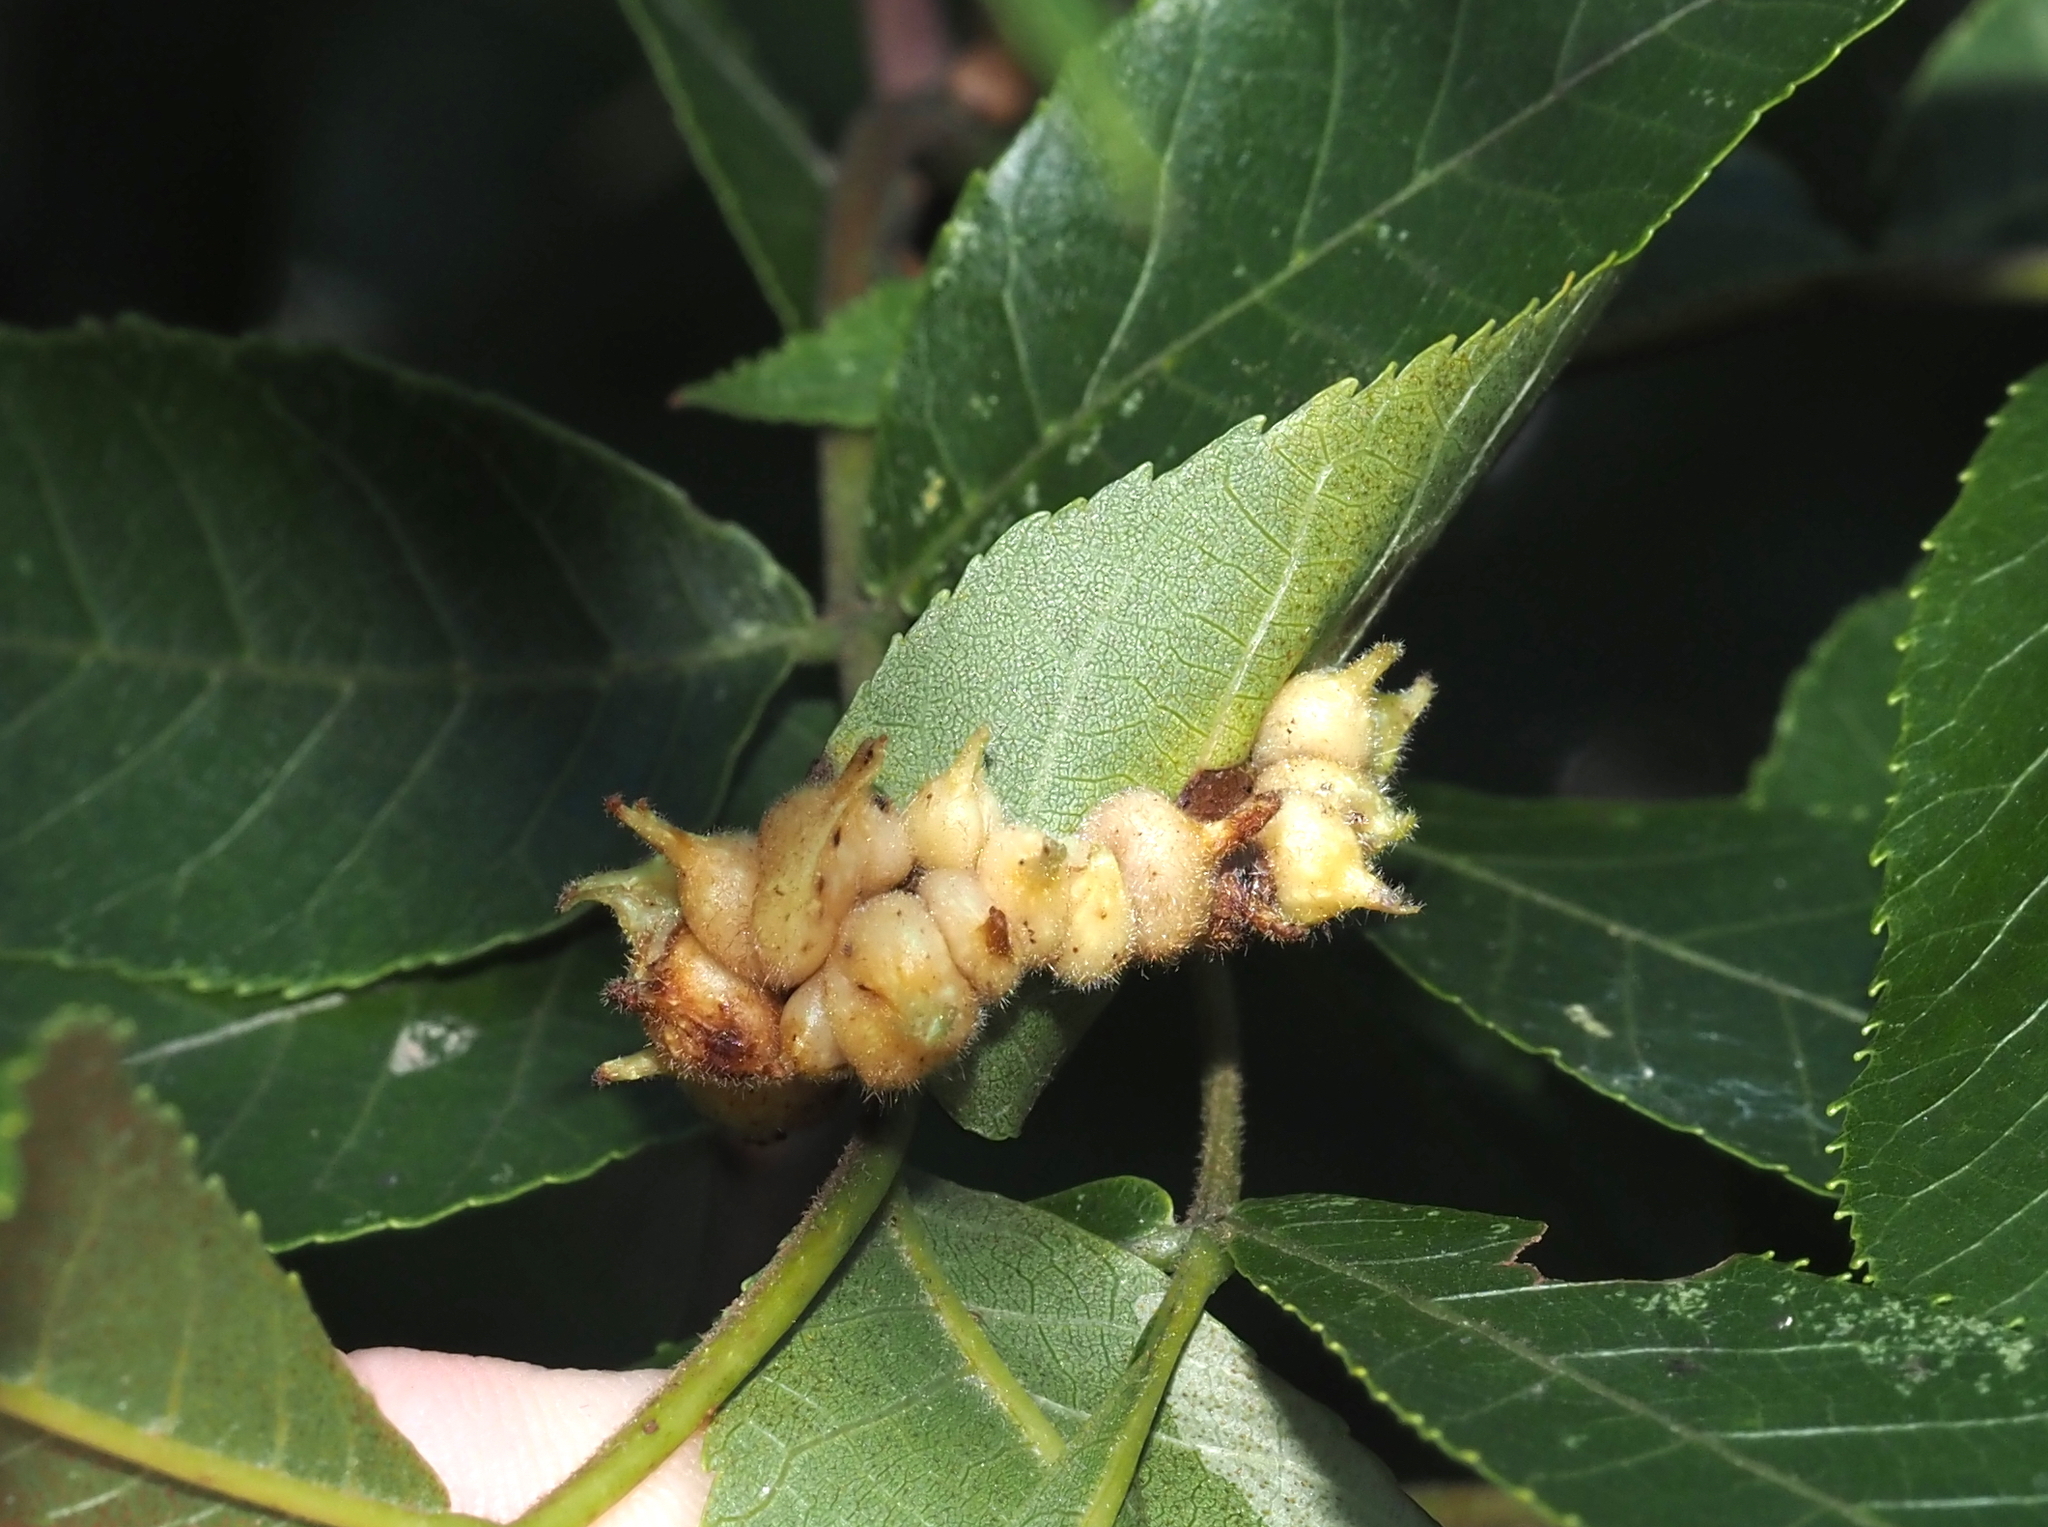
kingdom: Animalia
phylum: Arthropoda
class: Insecta
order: Diptera
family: Cecidomyiidae
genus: Caryomyia
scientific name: Caryomyia ansericollum
